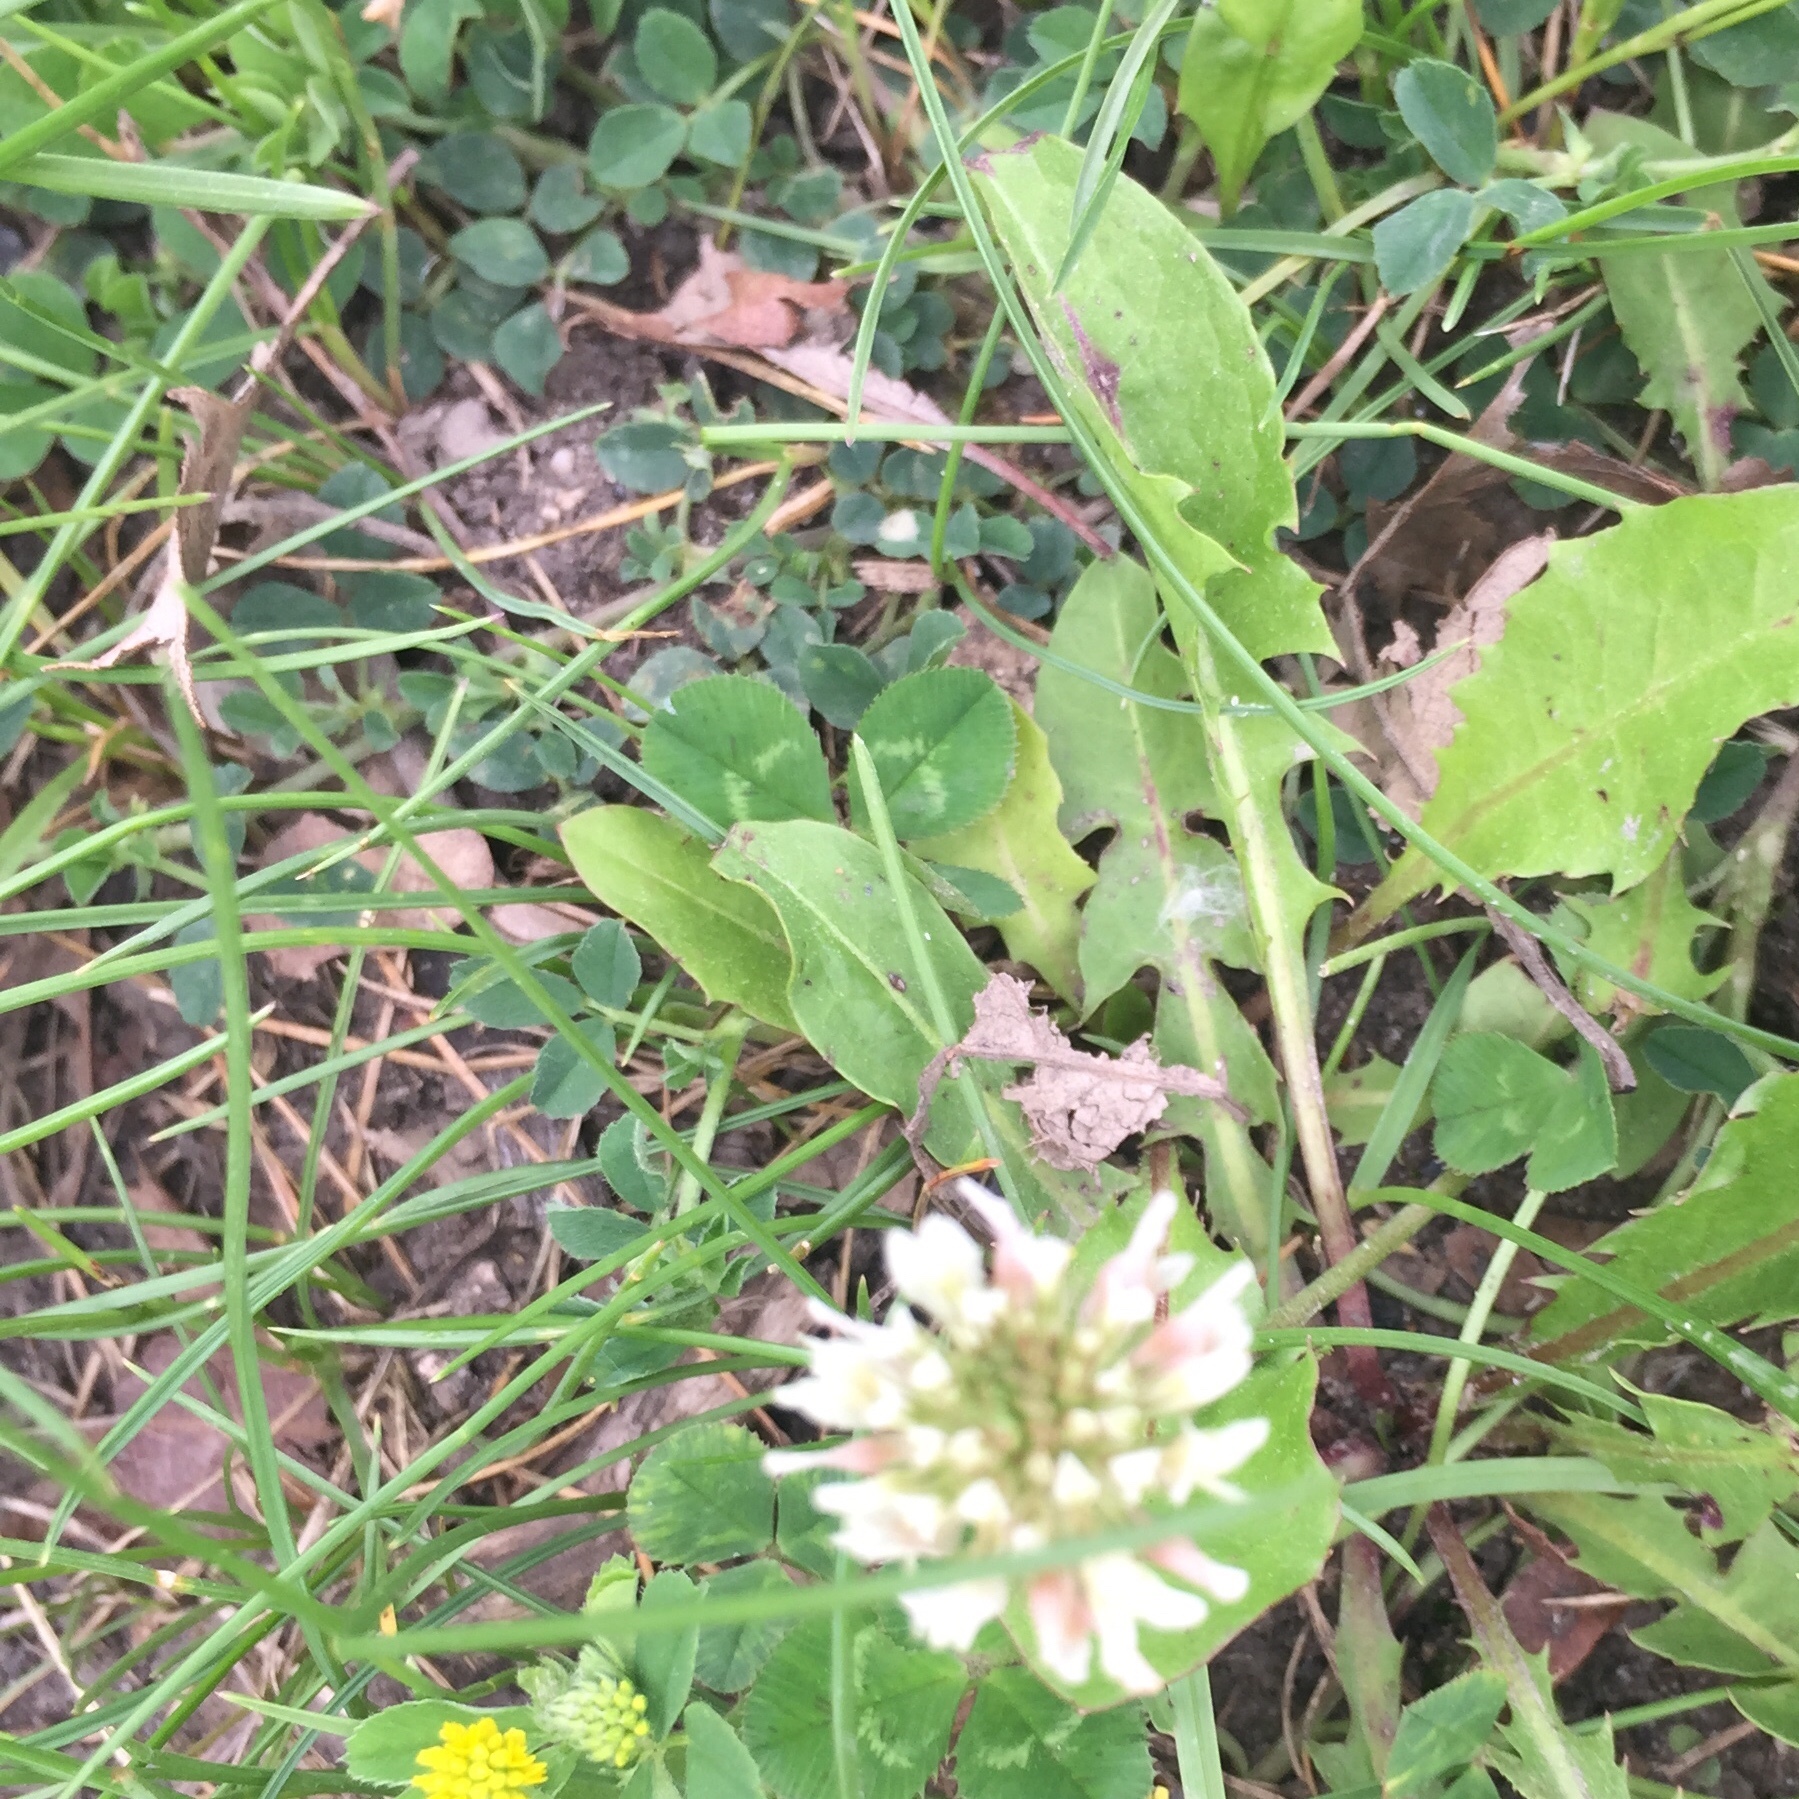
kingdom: Plantae
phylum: Tracheophyta
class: Magnoliopsida
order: Fabales
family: Fabaceae
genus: Trifolium
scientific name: Trifolium repens
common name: White clover
